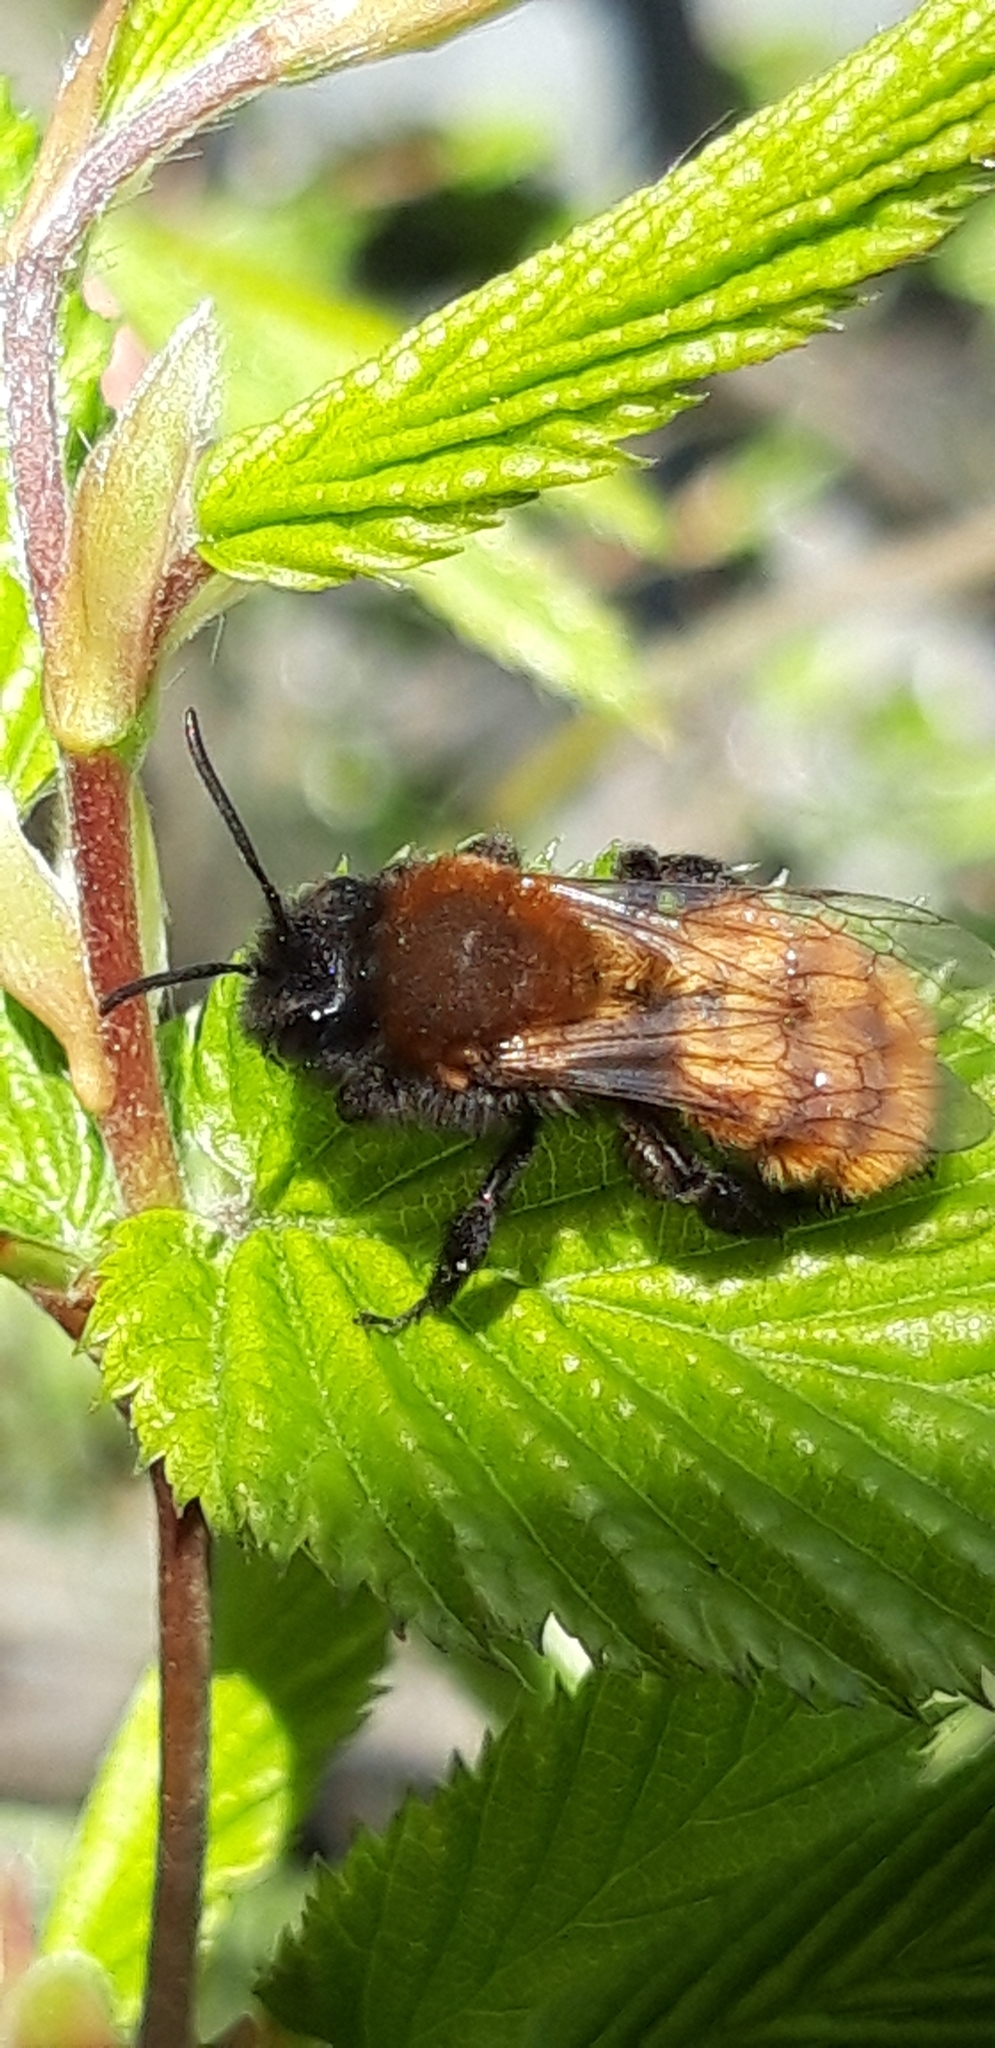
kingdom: Animalia
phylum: Arthropoda
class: Insecta
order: Hymenoptera
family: Andrenidae
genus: Andrena
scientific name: Andrena fulva
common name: Tawny mining bee
